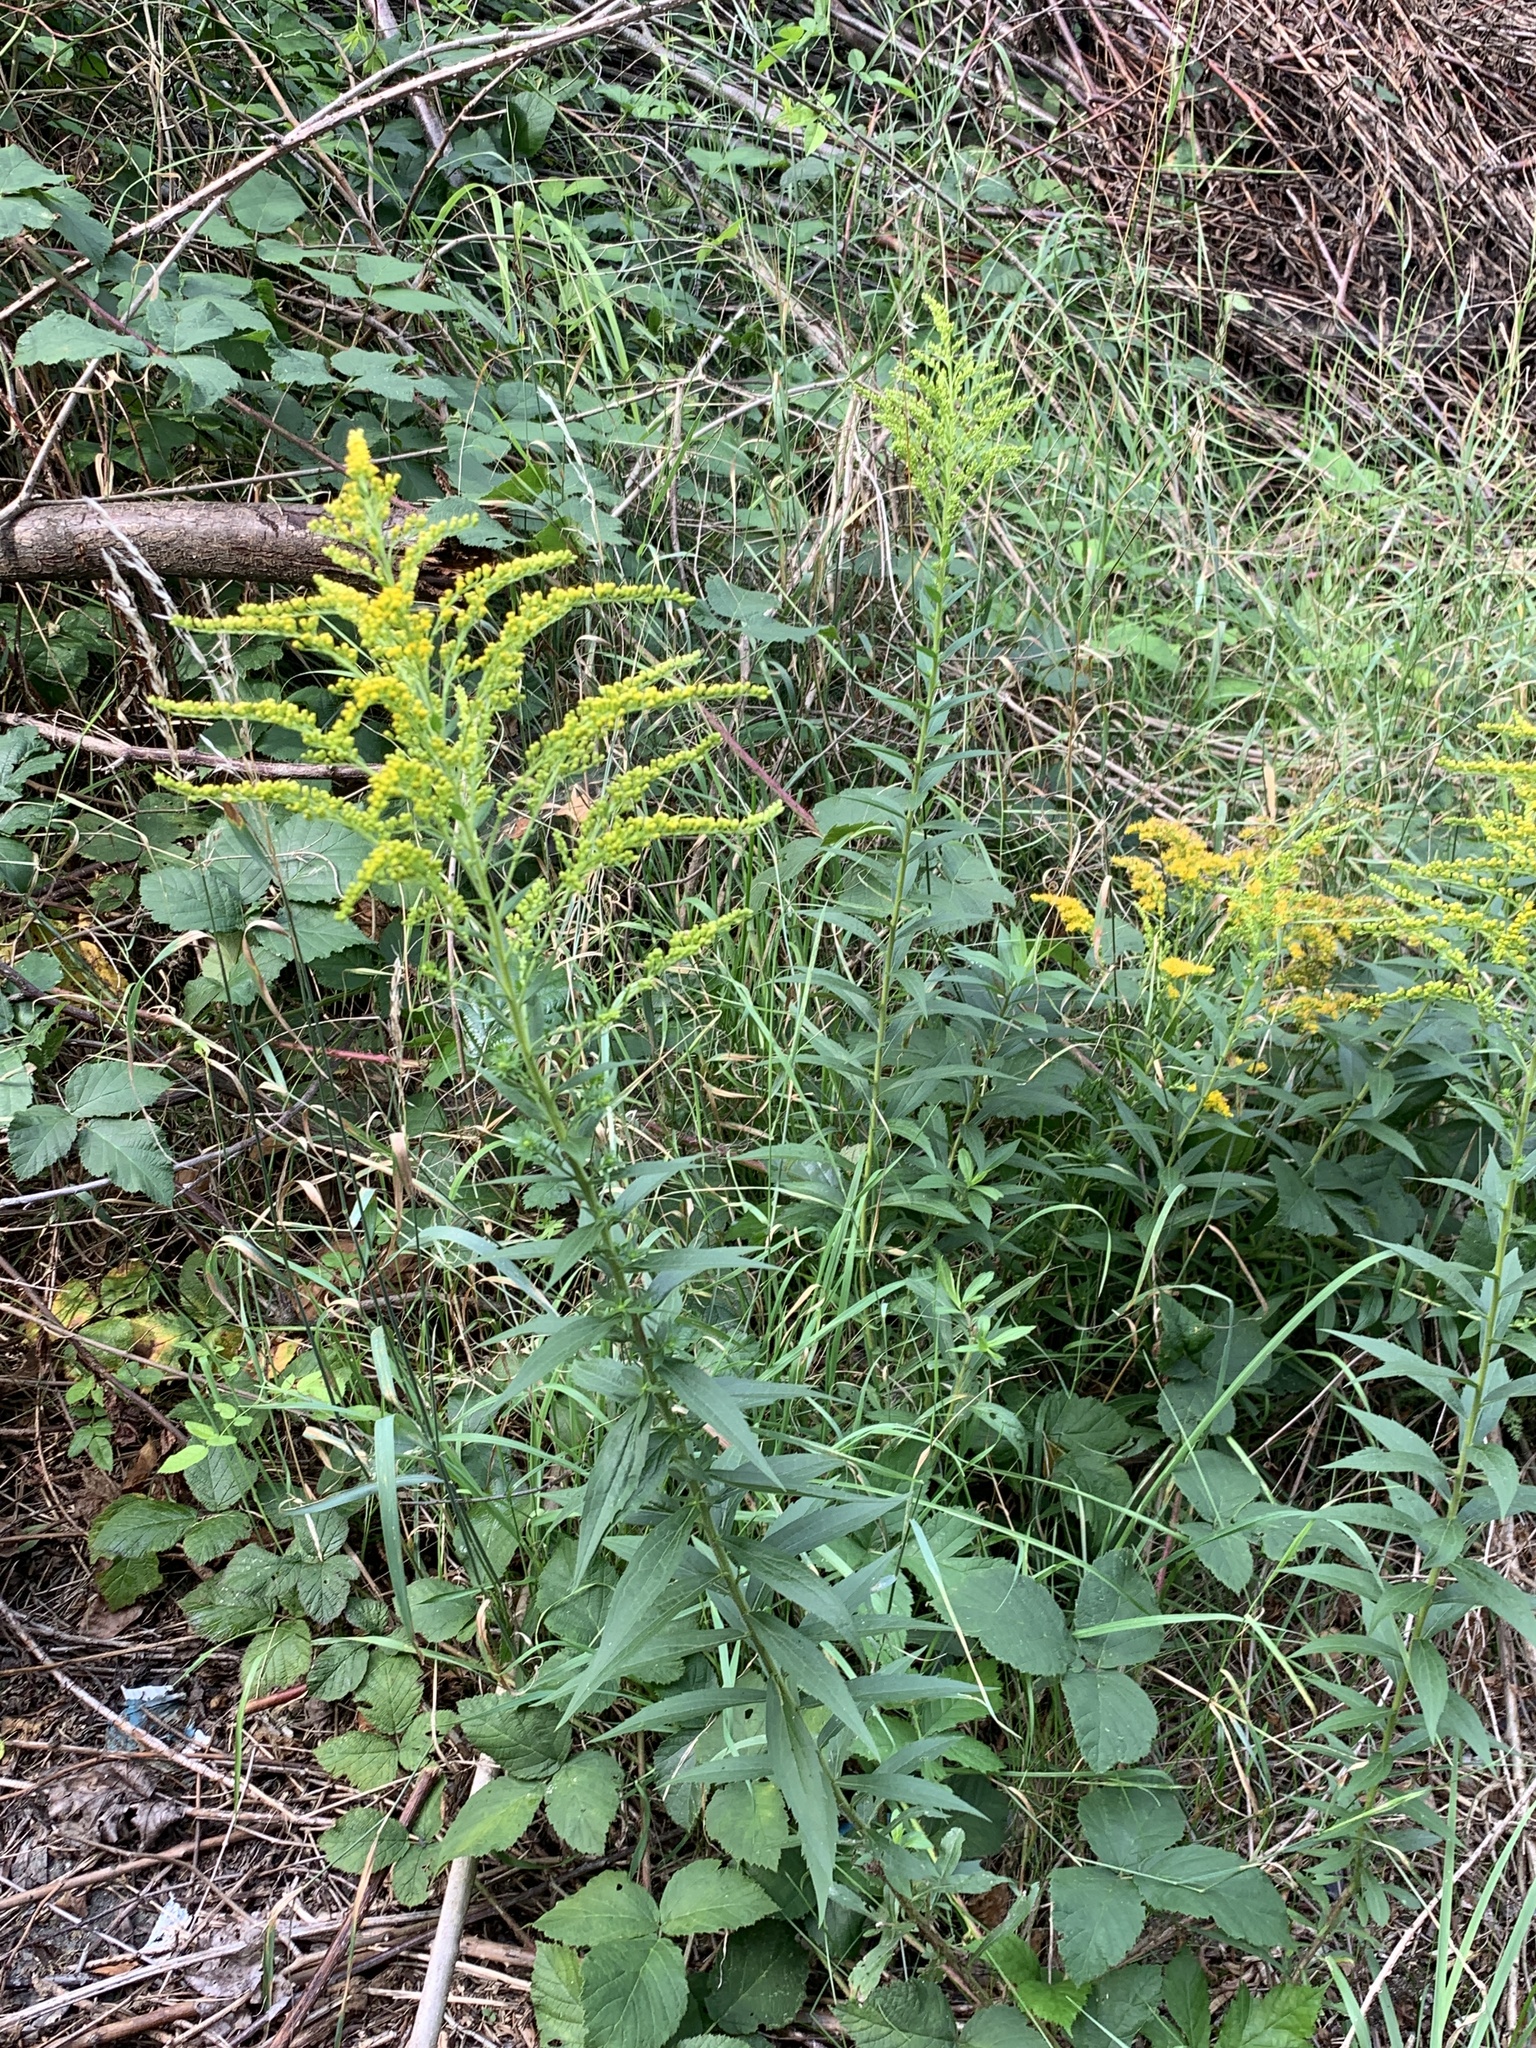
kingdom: Plantae
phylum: Tracheophyta
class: Magnoliopsida
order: Asterales
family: Asteraceae
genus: Solidago
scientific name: Solidago canadensis
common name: Canada goldenrod
